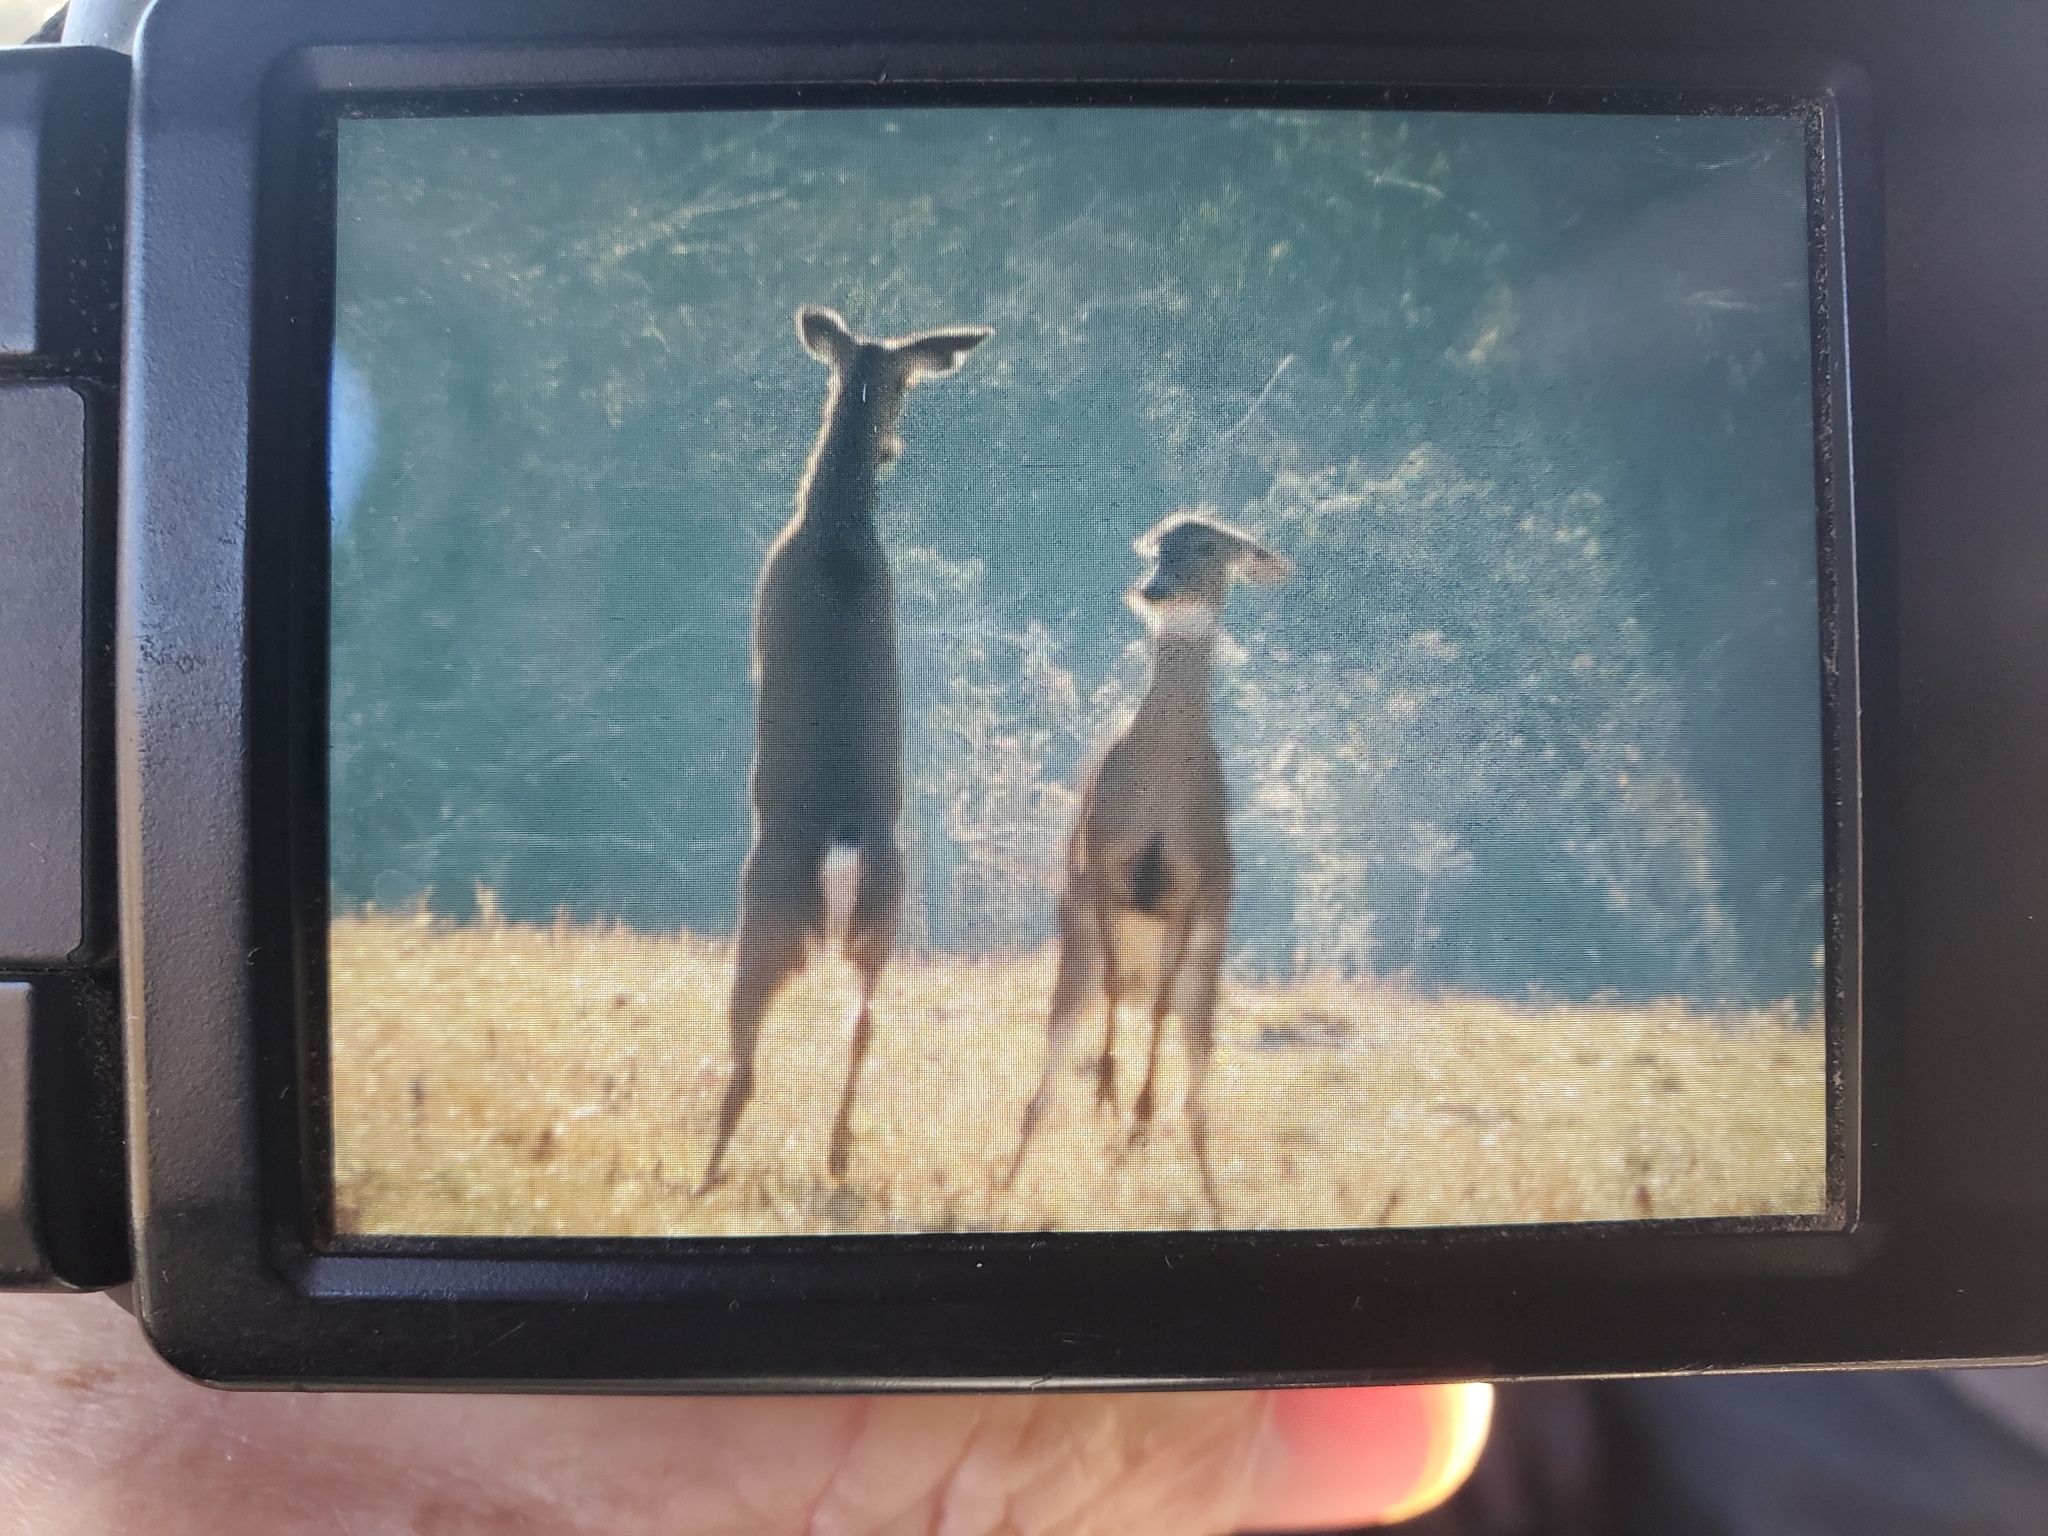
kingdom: Animalia
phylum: Chordata
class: Mammalia
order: Artiodactyla
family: Cervidae
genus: Odocoileus
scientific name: Odocoileus virginianus
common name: White-tailed deer
